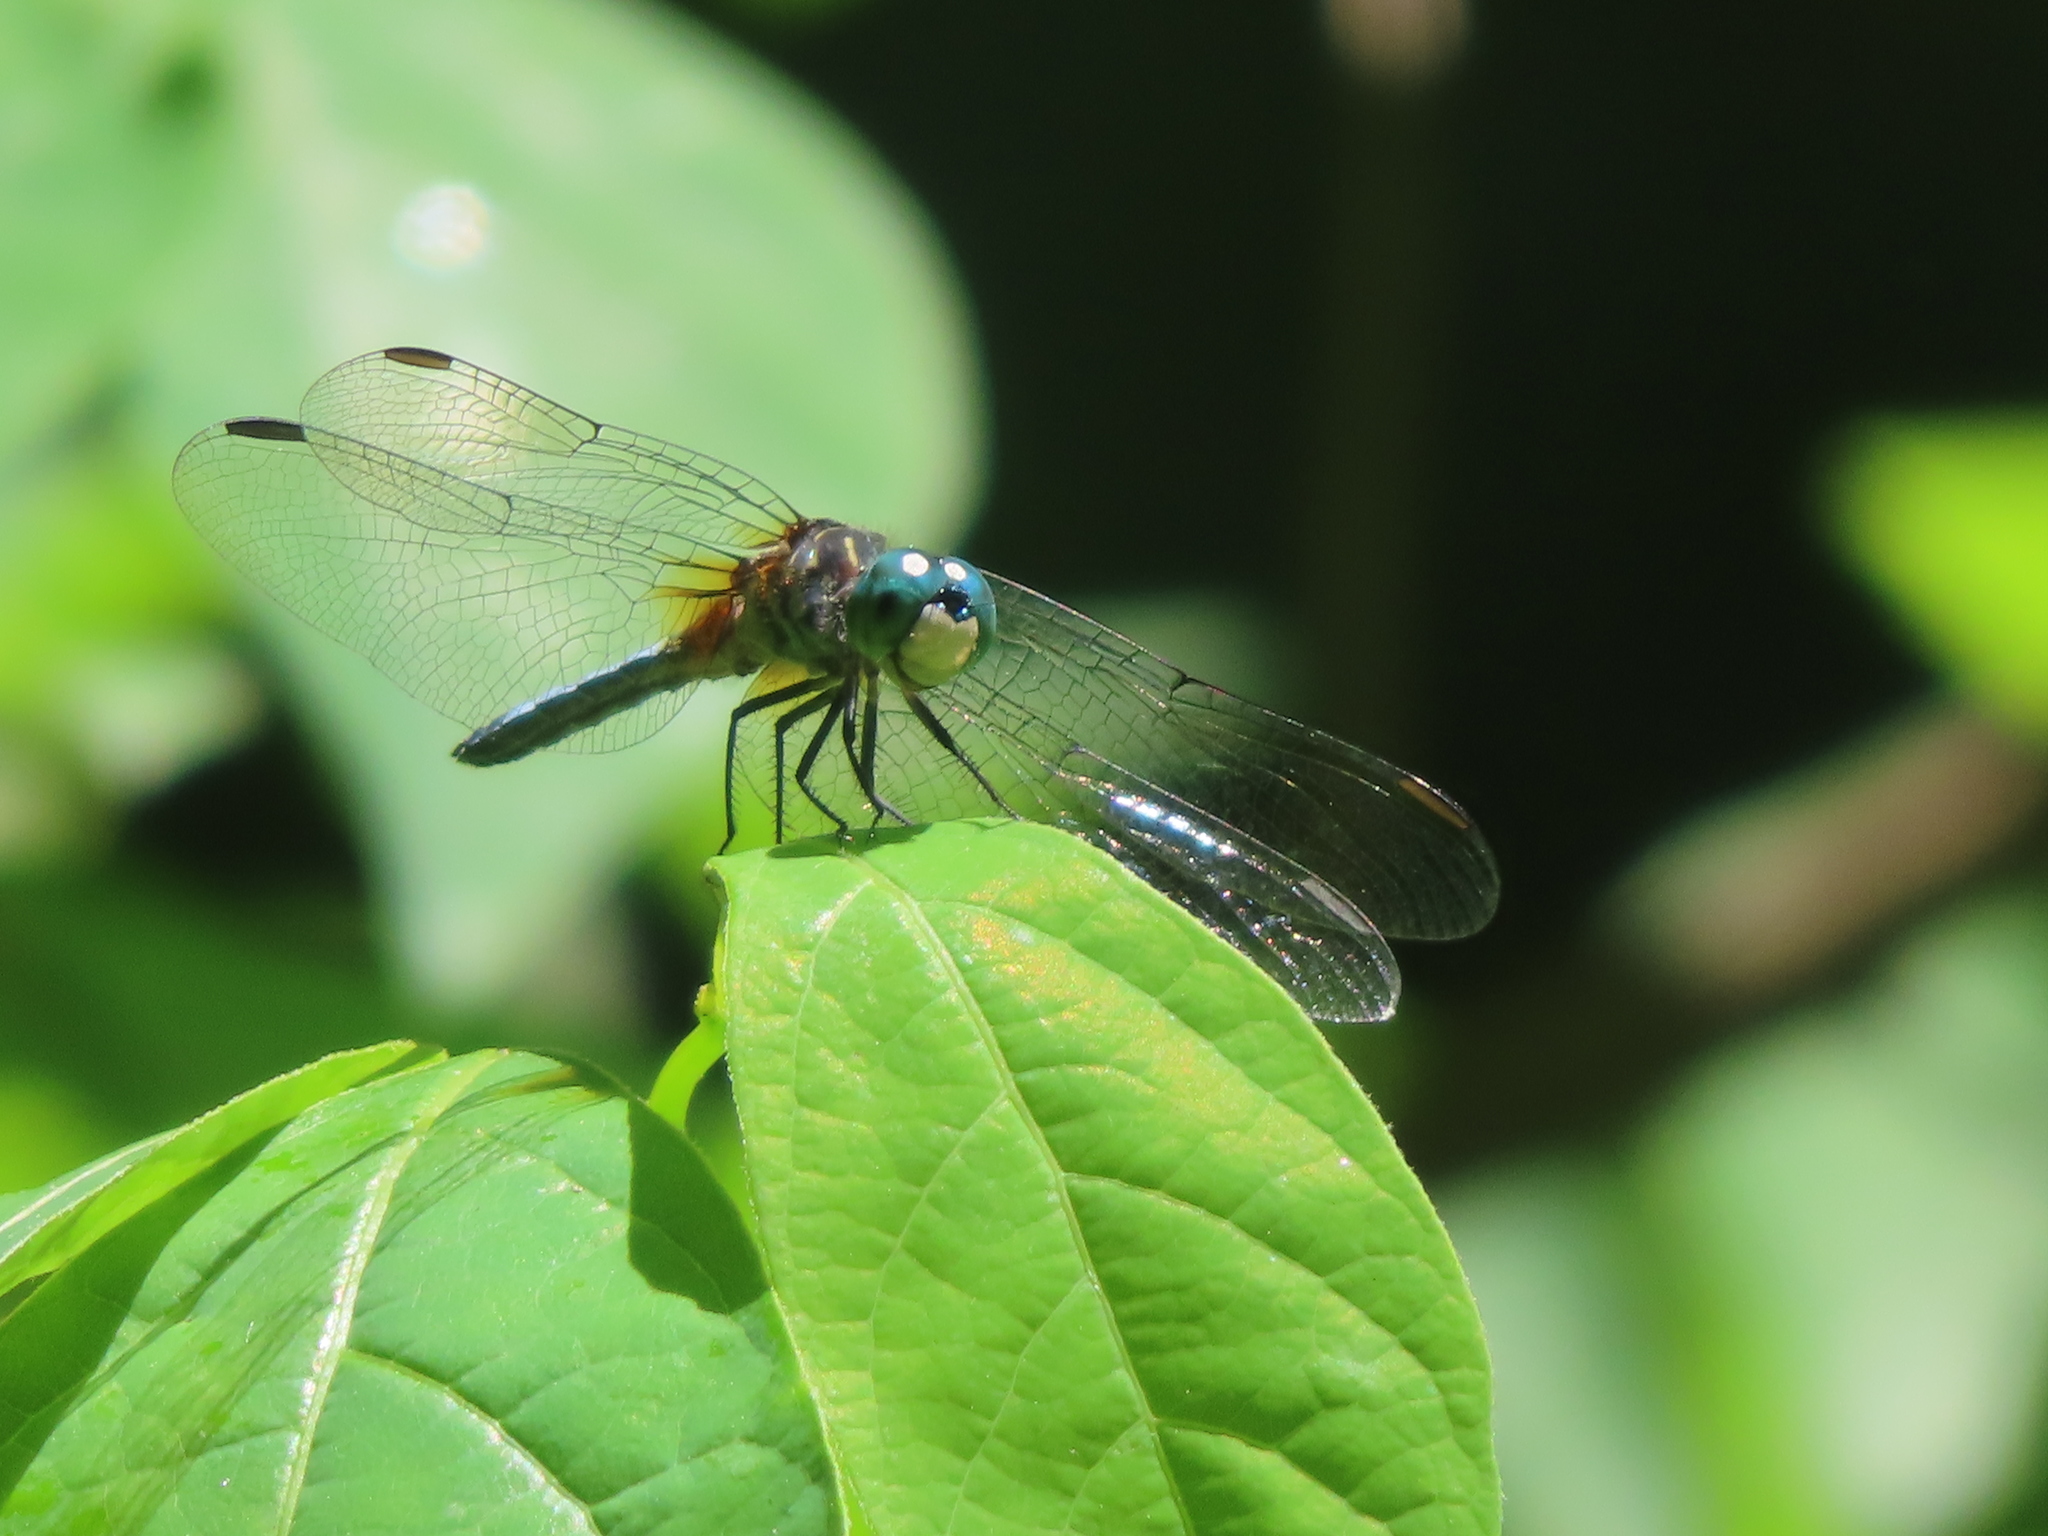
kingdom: Animalia
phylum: Arthropoda
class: Insecta
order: Odonata
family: Libellulidae
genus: Pachydiplax
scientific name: Pachydiplax longipennis
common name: Blue dasher
